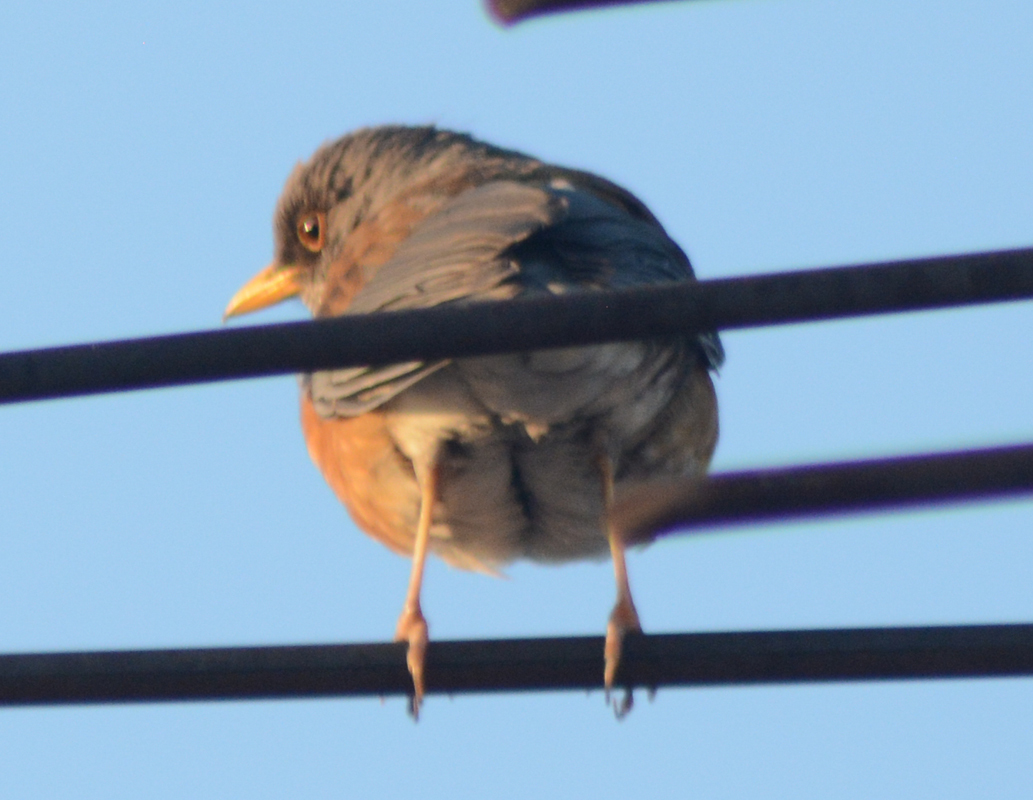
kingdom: Animalia
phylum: Chordata
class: Aves
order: Passeriformes
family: Turdidae
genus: Turdus
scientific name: Turdus rufopalliatus
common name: Rufous-backed robin
